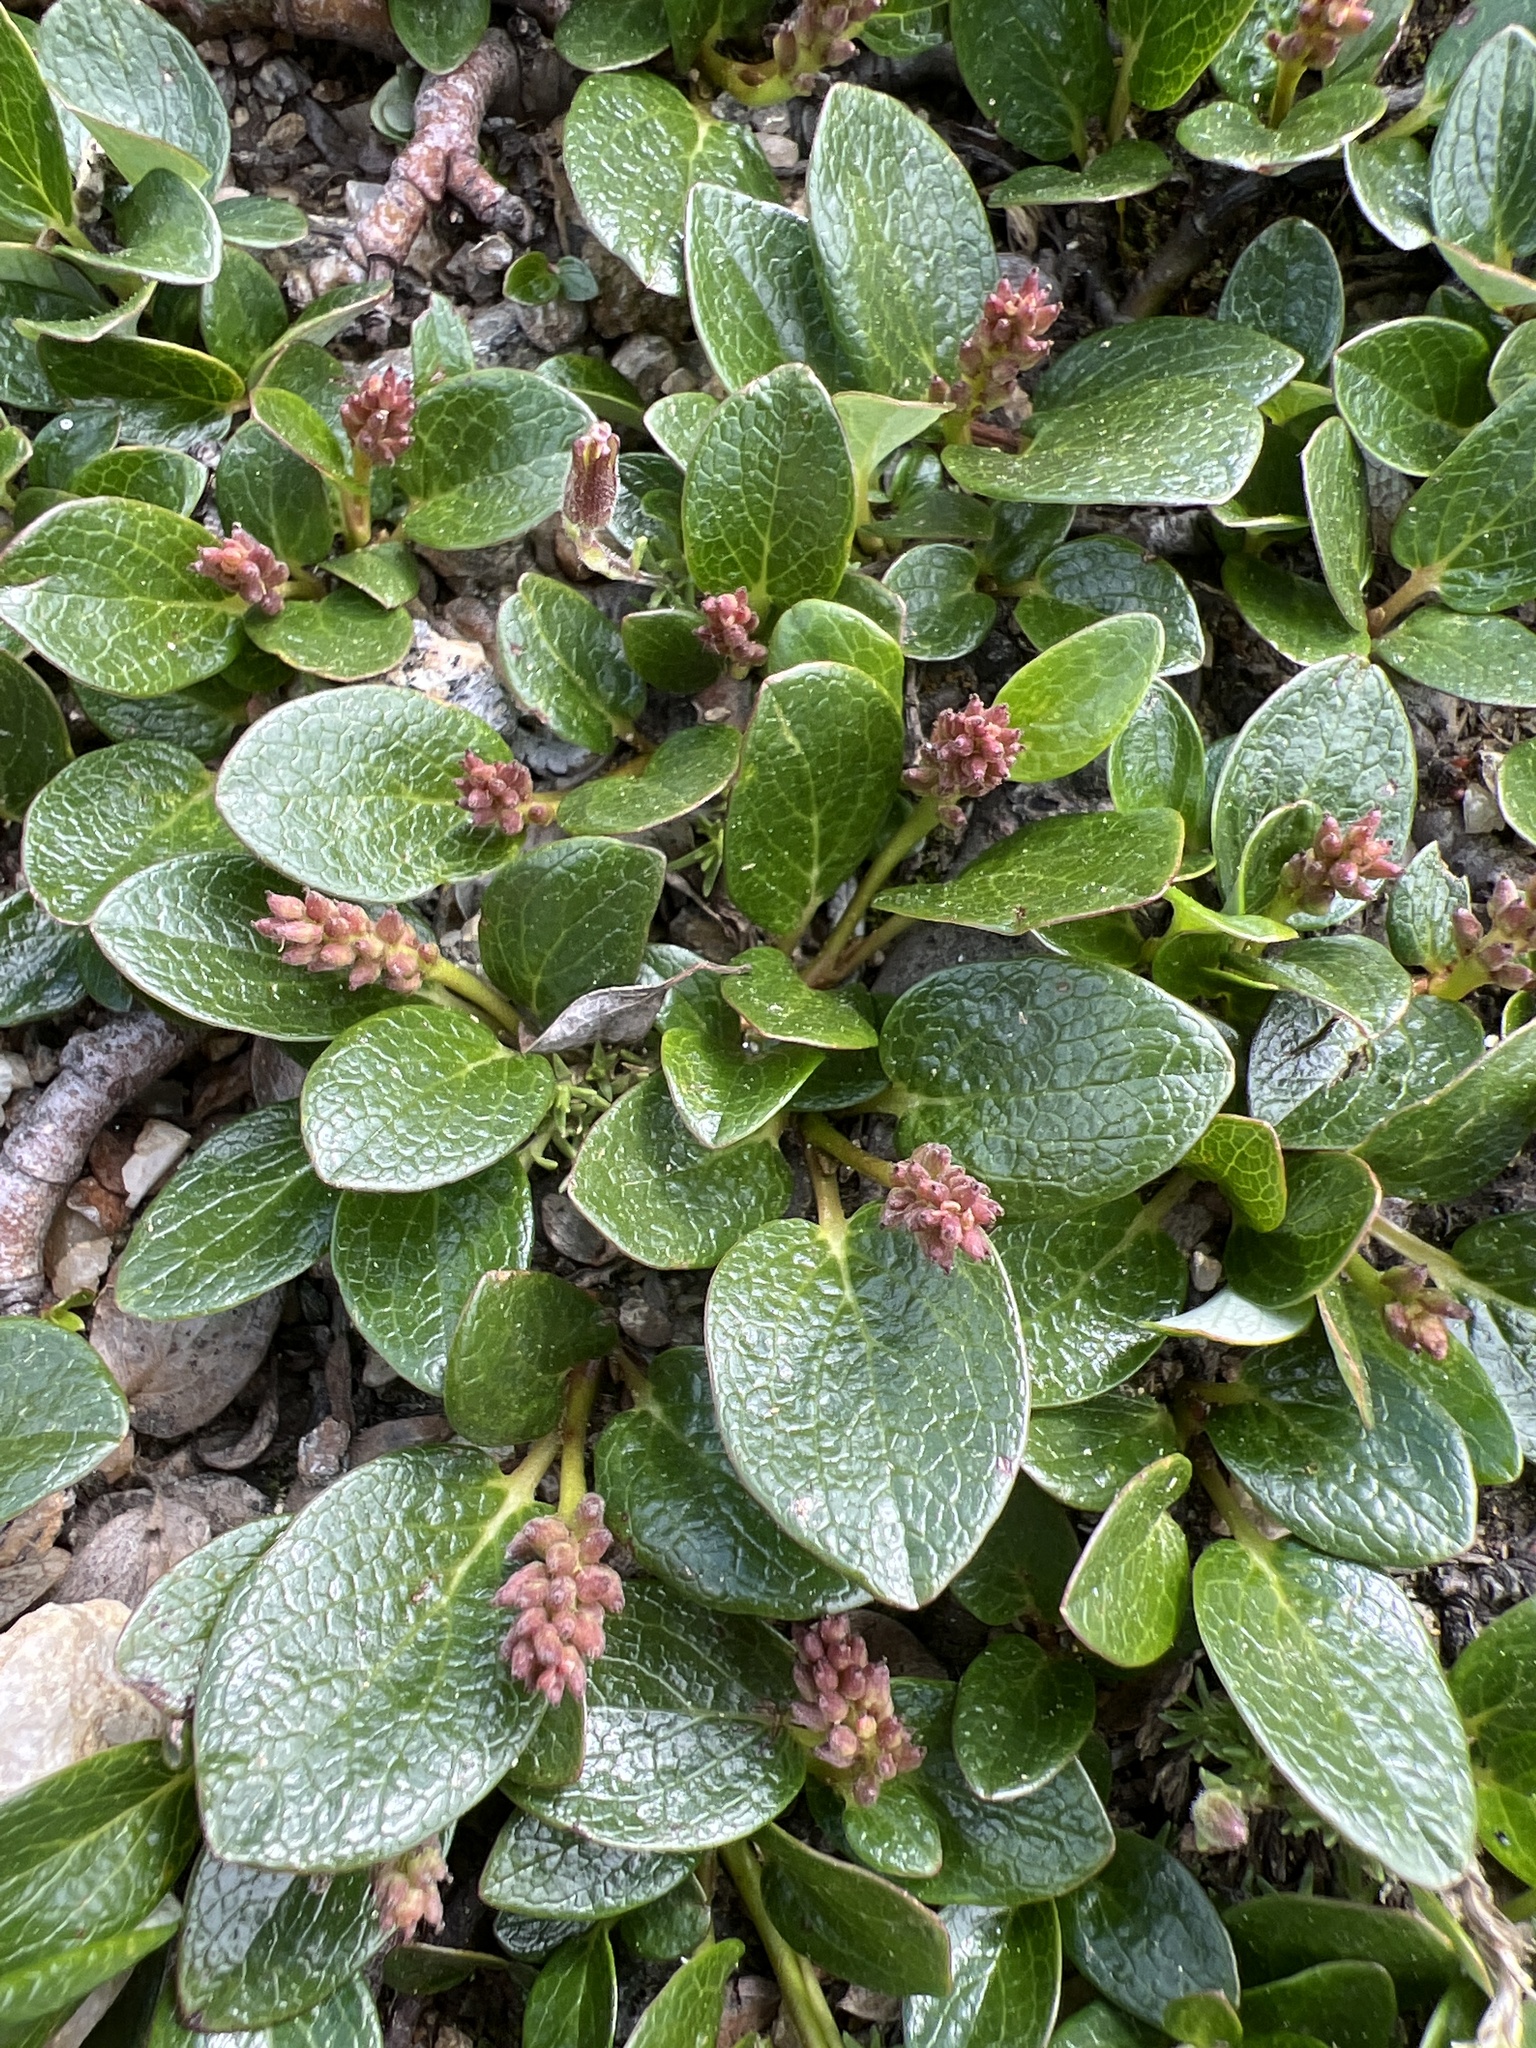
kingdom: Plantae
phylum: Tracheophyta
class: Magnoliopsida
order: Malpighiales
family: Salicaceae
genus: Salix
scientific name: Salix nivalis
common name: Dwarf snow willow
